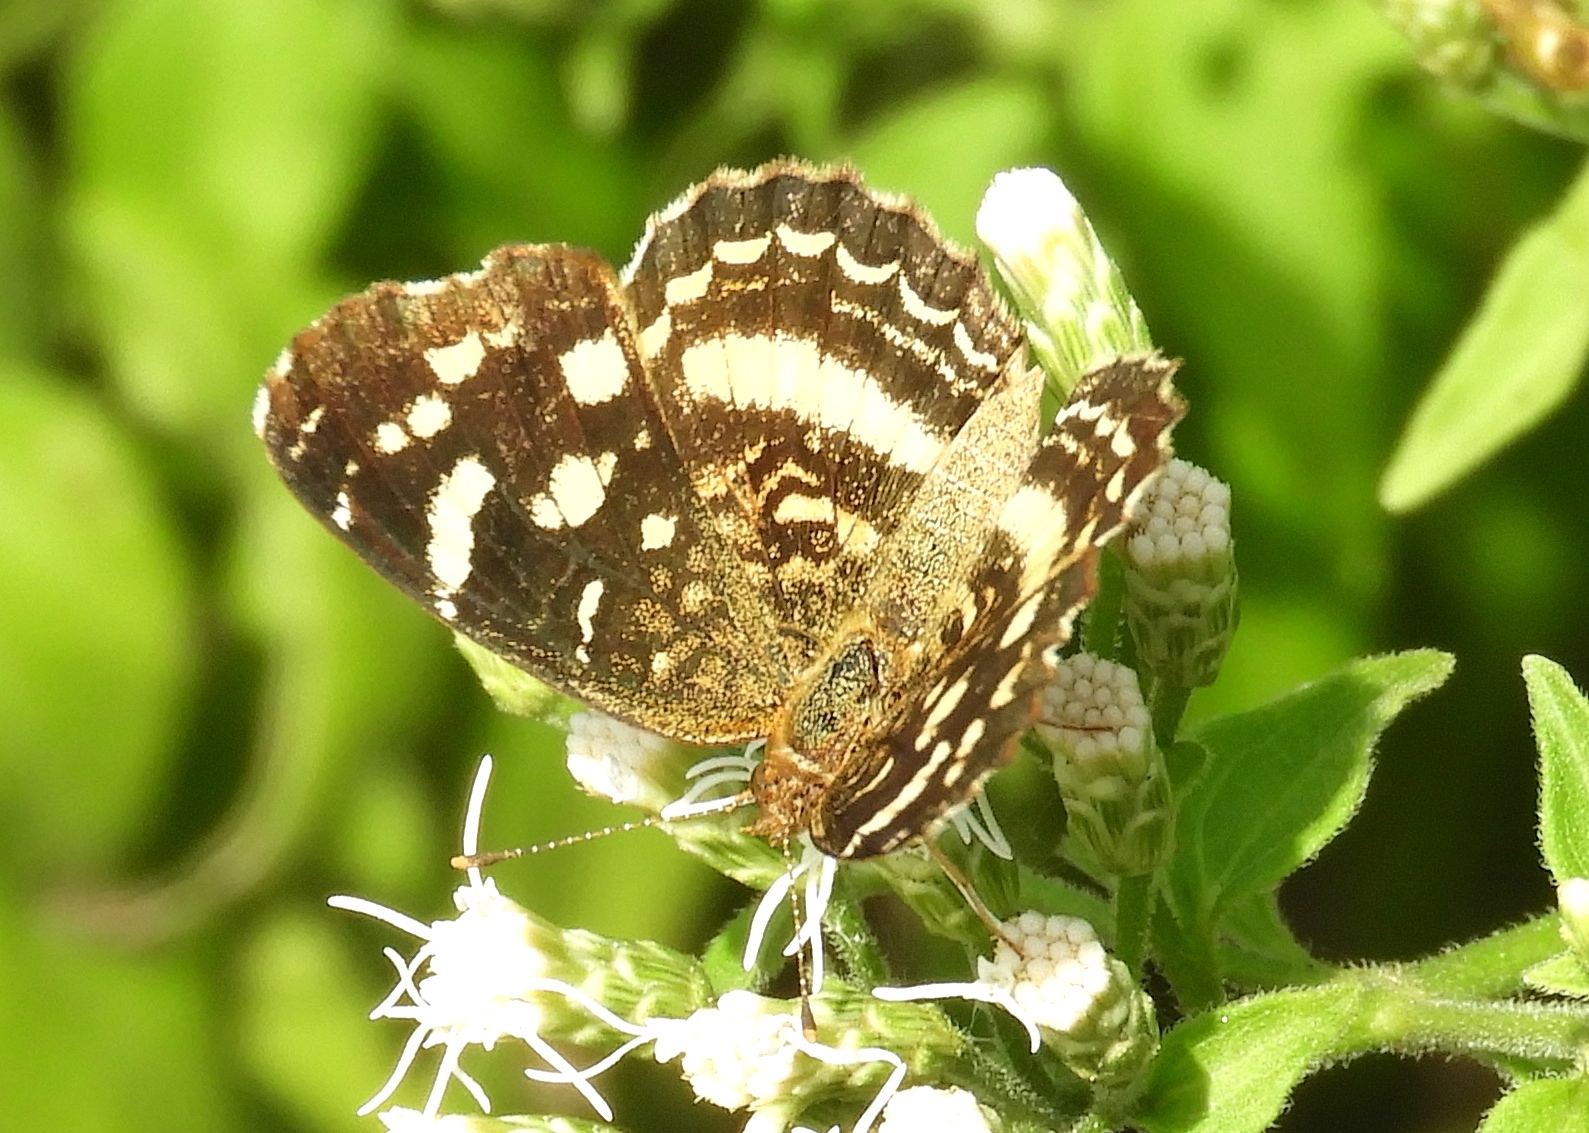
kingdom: Animalia
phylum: Arthropoda
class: Insecta
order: Lepidoptera
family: Nymphalidae
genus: Anthanassa
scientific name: Anthanassa
